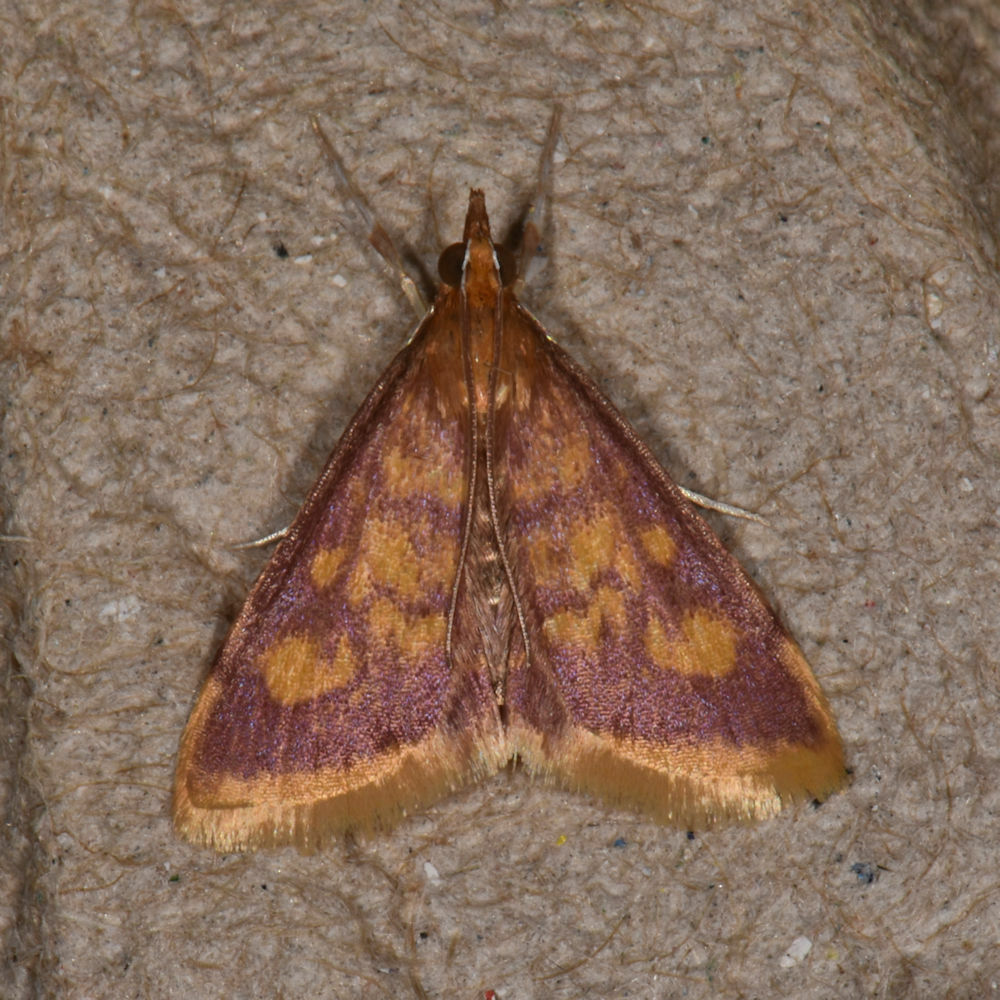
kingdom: Animalia
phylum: Arthropoda
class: Insecta
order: Lepidoptera
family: Crambidae
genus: Pyrausta
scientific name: Pyrausta acrionalis
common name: Mint-loving pyrausta moth
